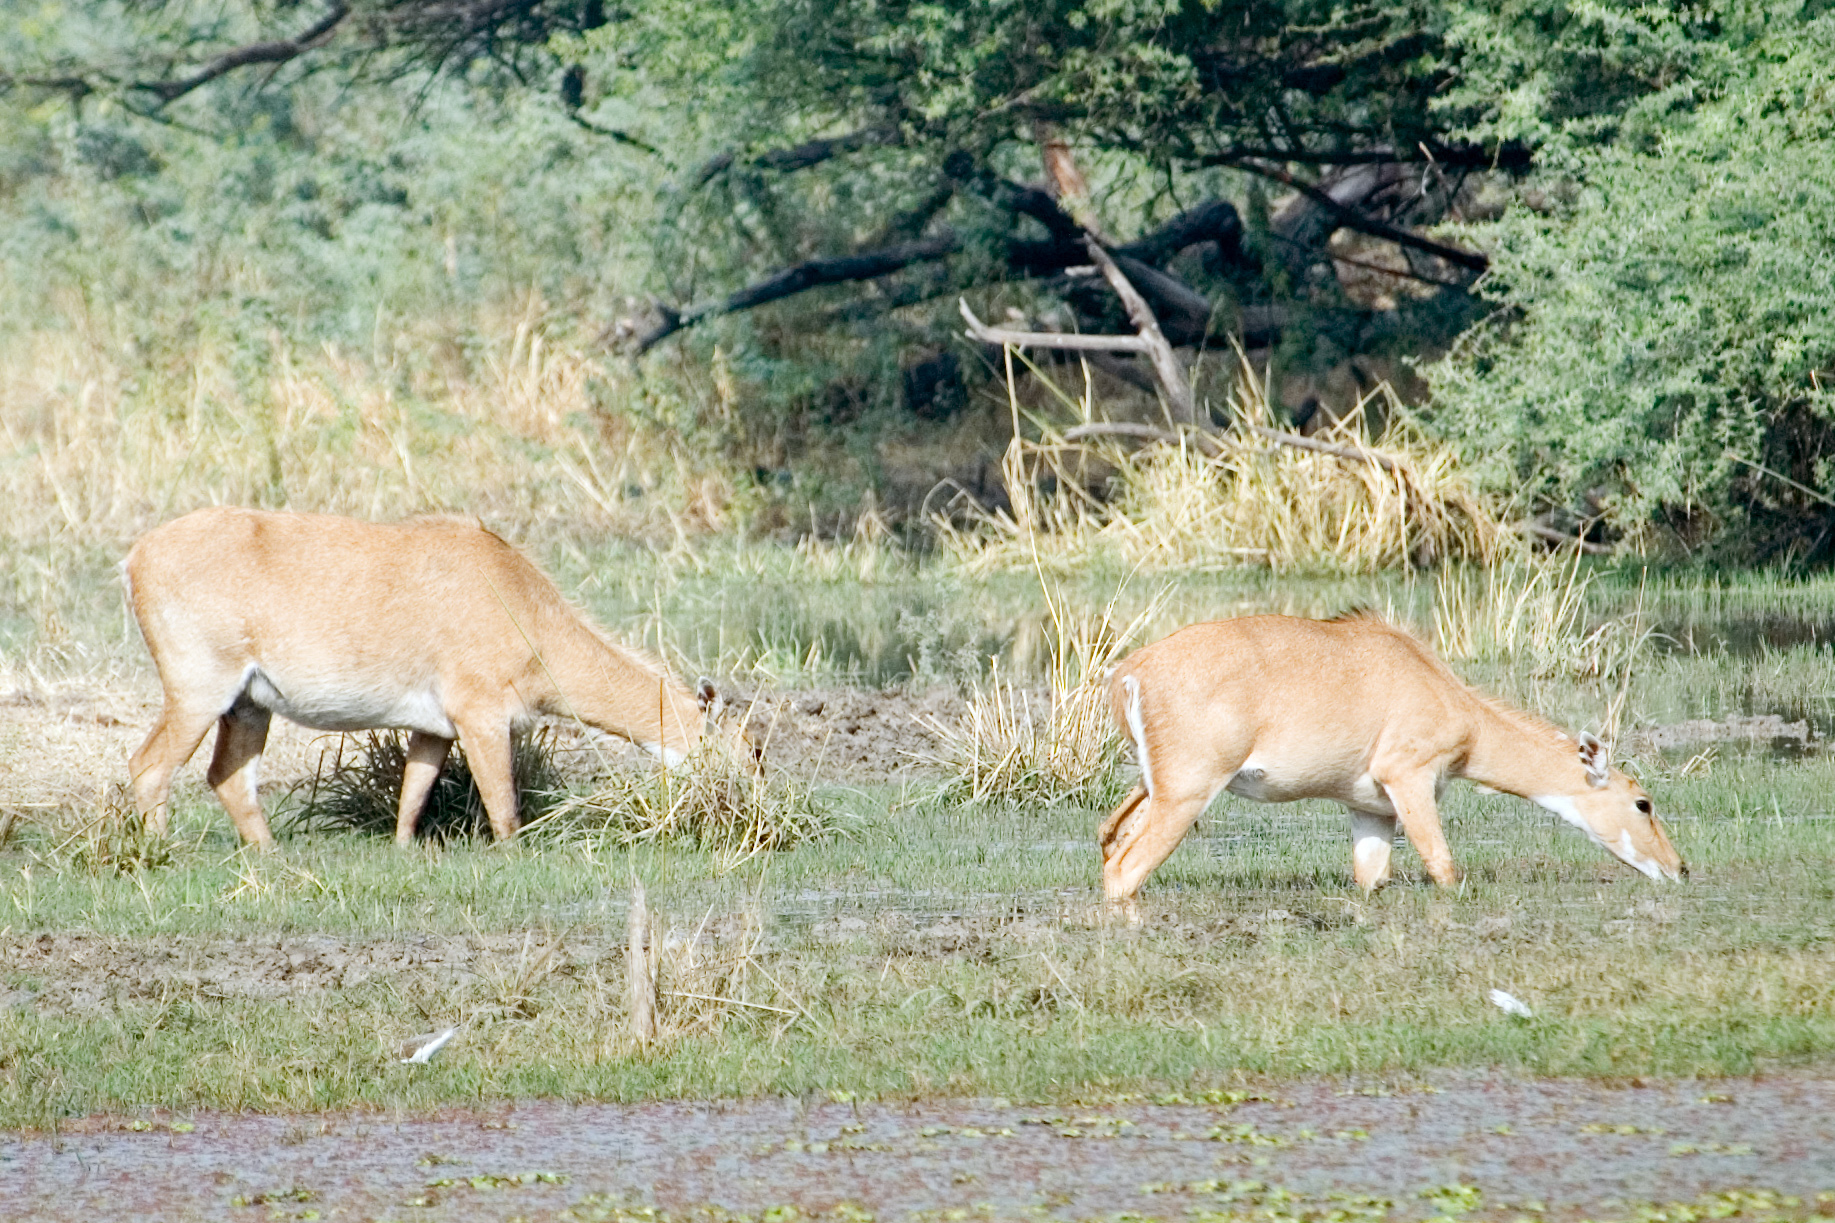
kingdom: Animalia
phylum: Chordata
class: Mammalia
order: Artiodactyla
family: Bovidae
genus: Boselaphus
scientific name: Boselaphus tragocamelus
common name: Nilgai
